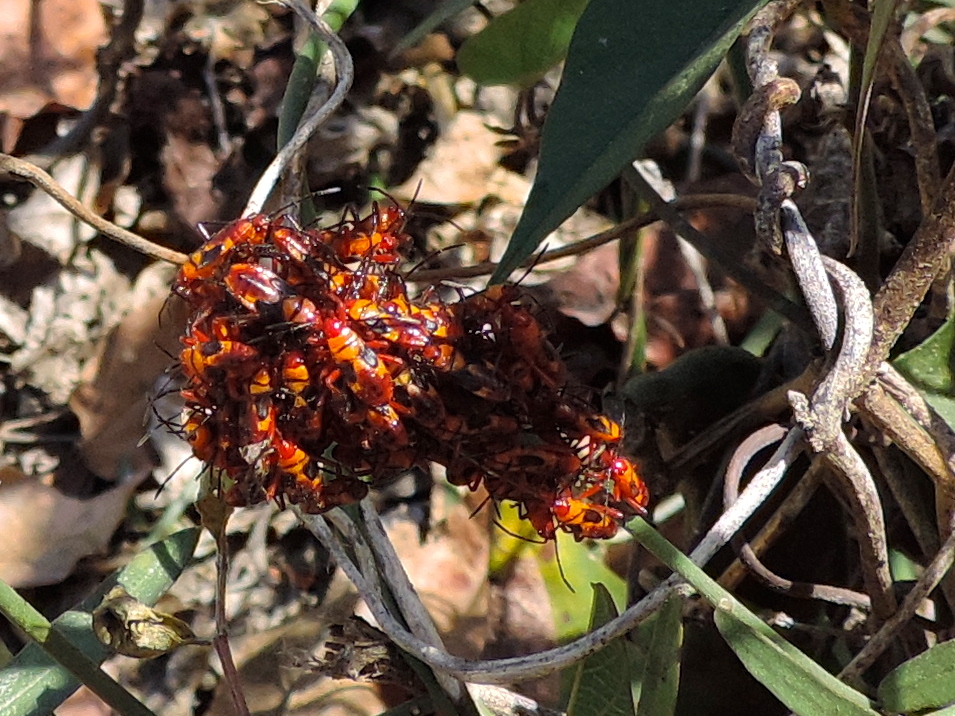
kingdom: Animalia
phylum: Arthropoda
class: Insecta
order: Hemiptera
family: Lygaeidae
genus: Oncopeltus
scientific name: Oncopeltus guttaloides
